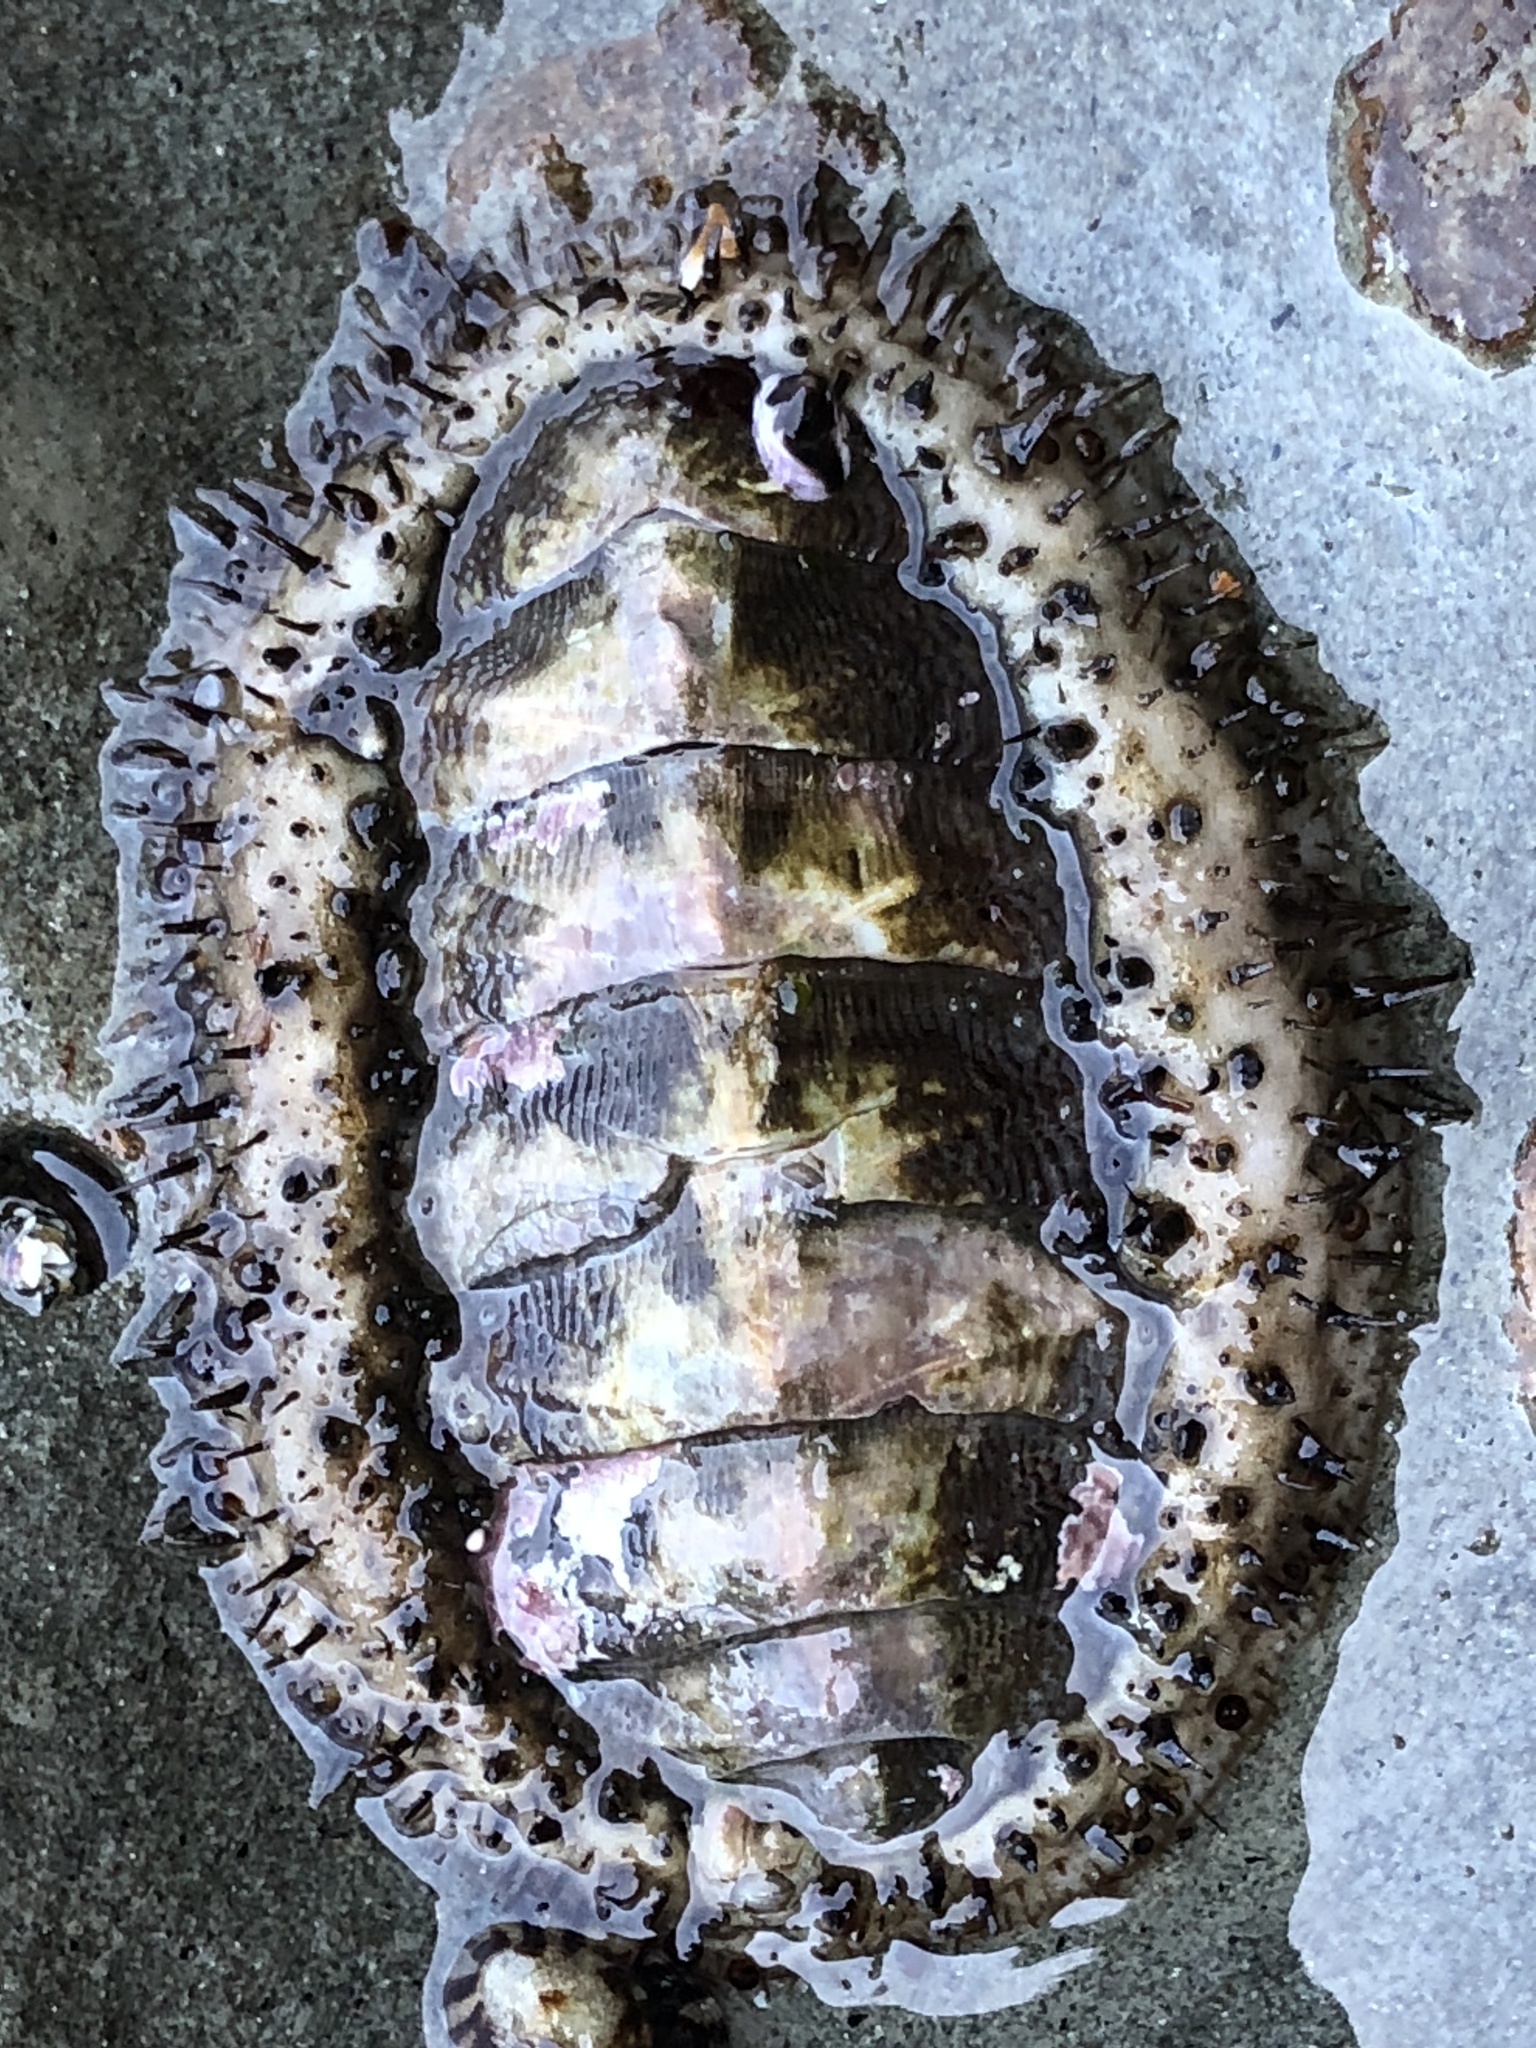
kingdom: Animalia
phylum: Mollusca
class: Polyplacophora
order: Chitonida
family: Mopaliidae
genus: Mopalia
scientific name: Mopalia muscosa
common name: Mossy chiton
